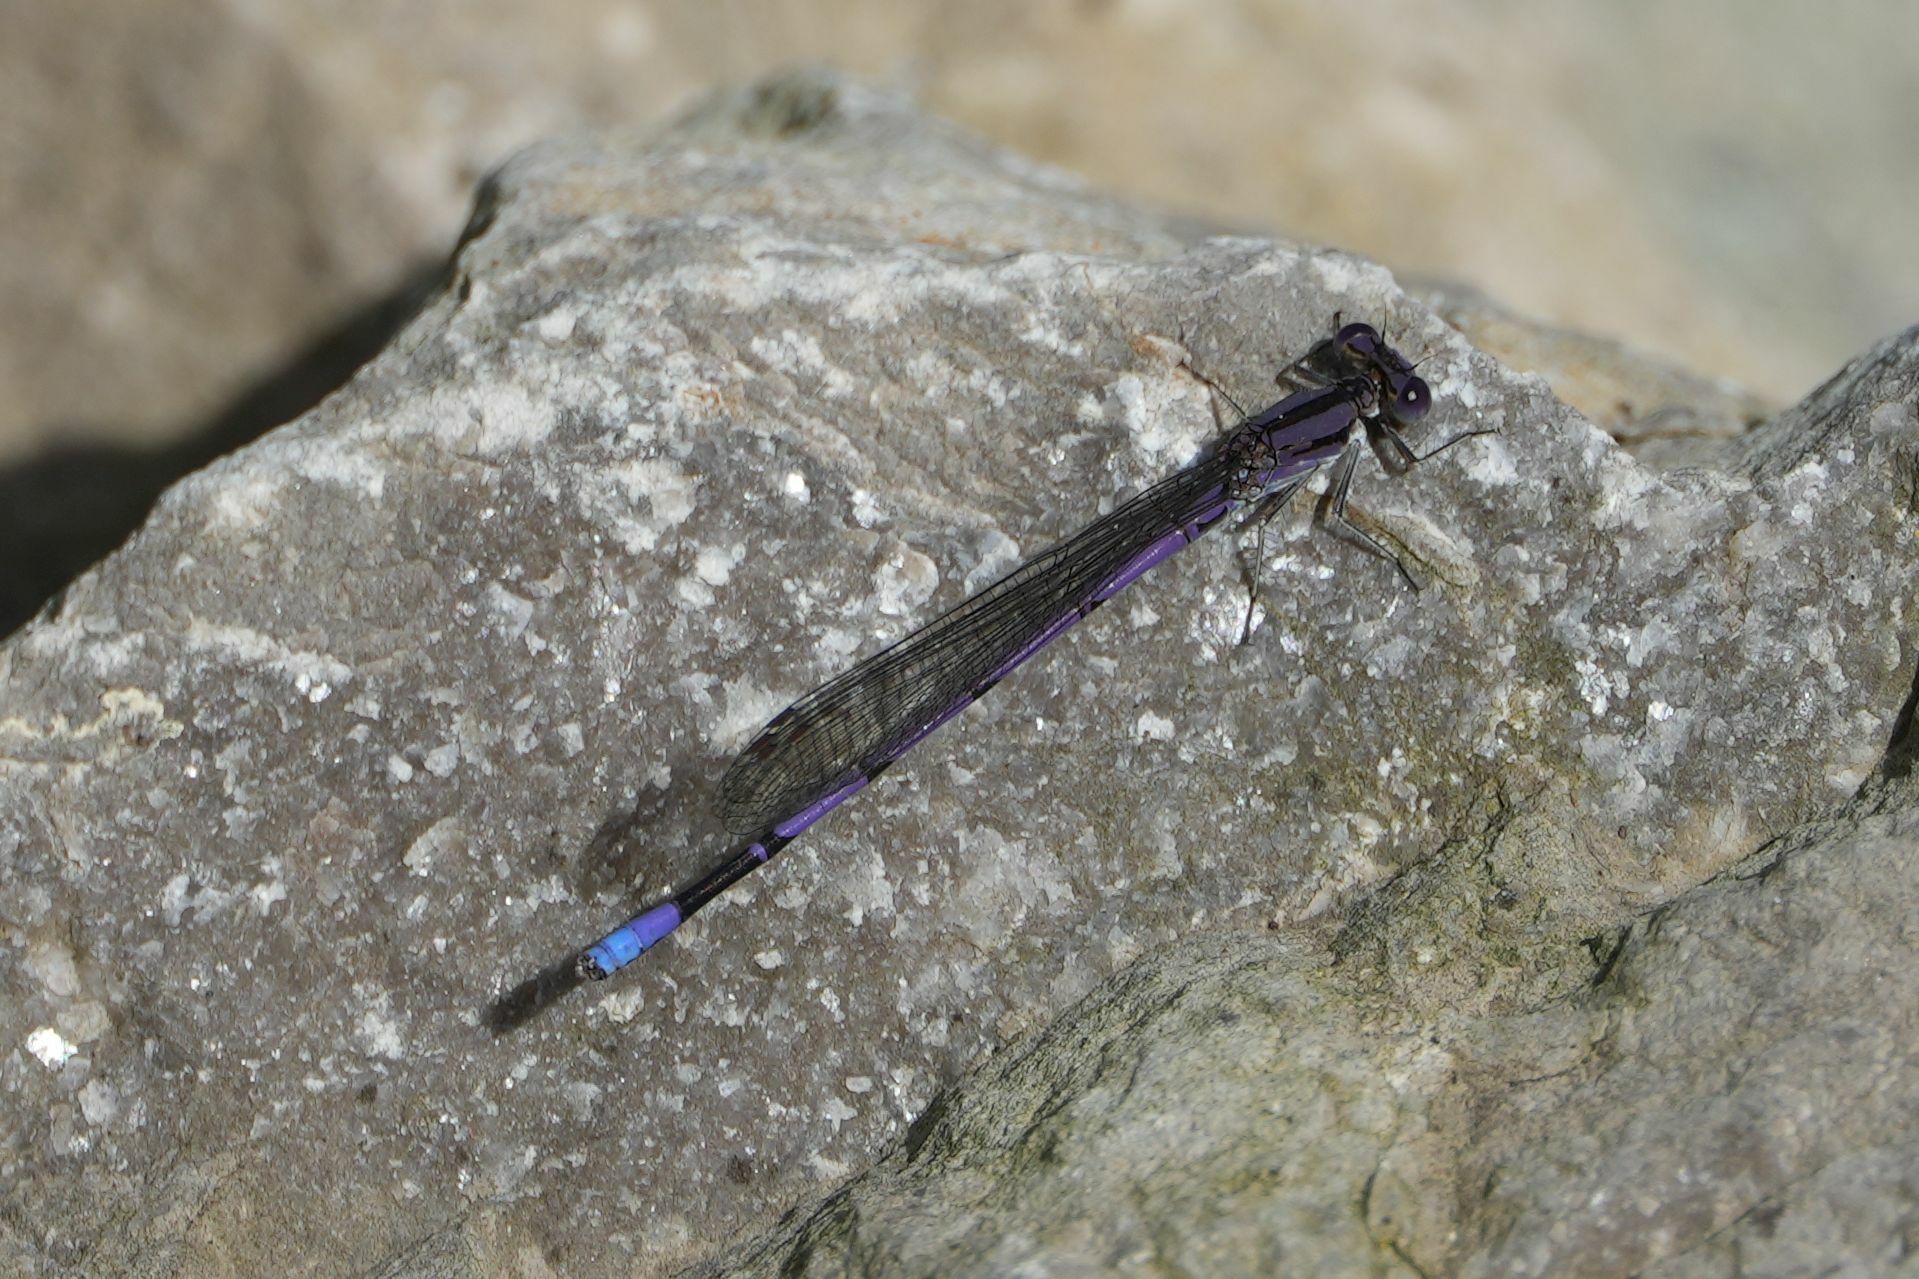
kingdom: Animalia
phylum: Arthropoda
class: Insecta
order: Odonata
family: Coenagrionidae
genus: Argia
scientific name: Argia fumipennis
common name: Variable dancer
